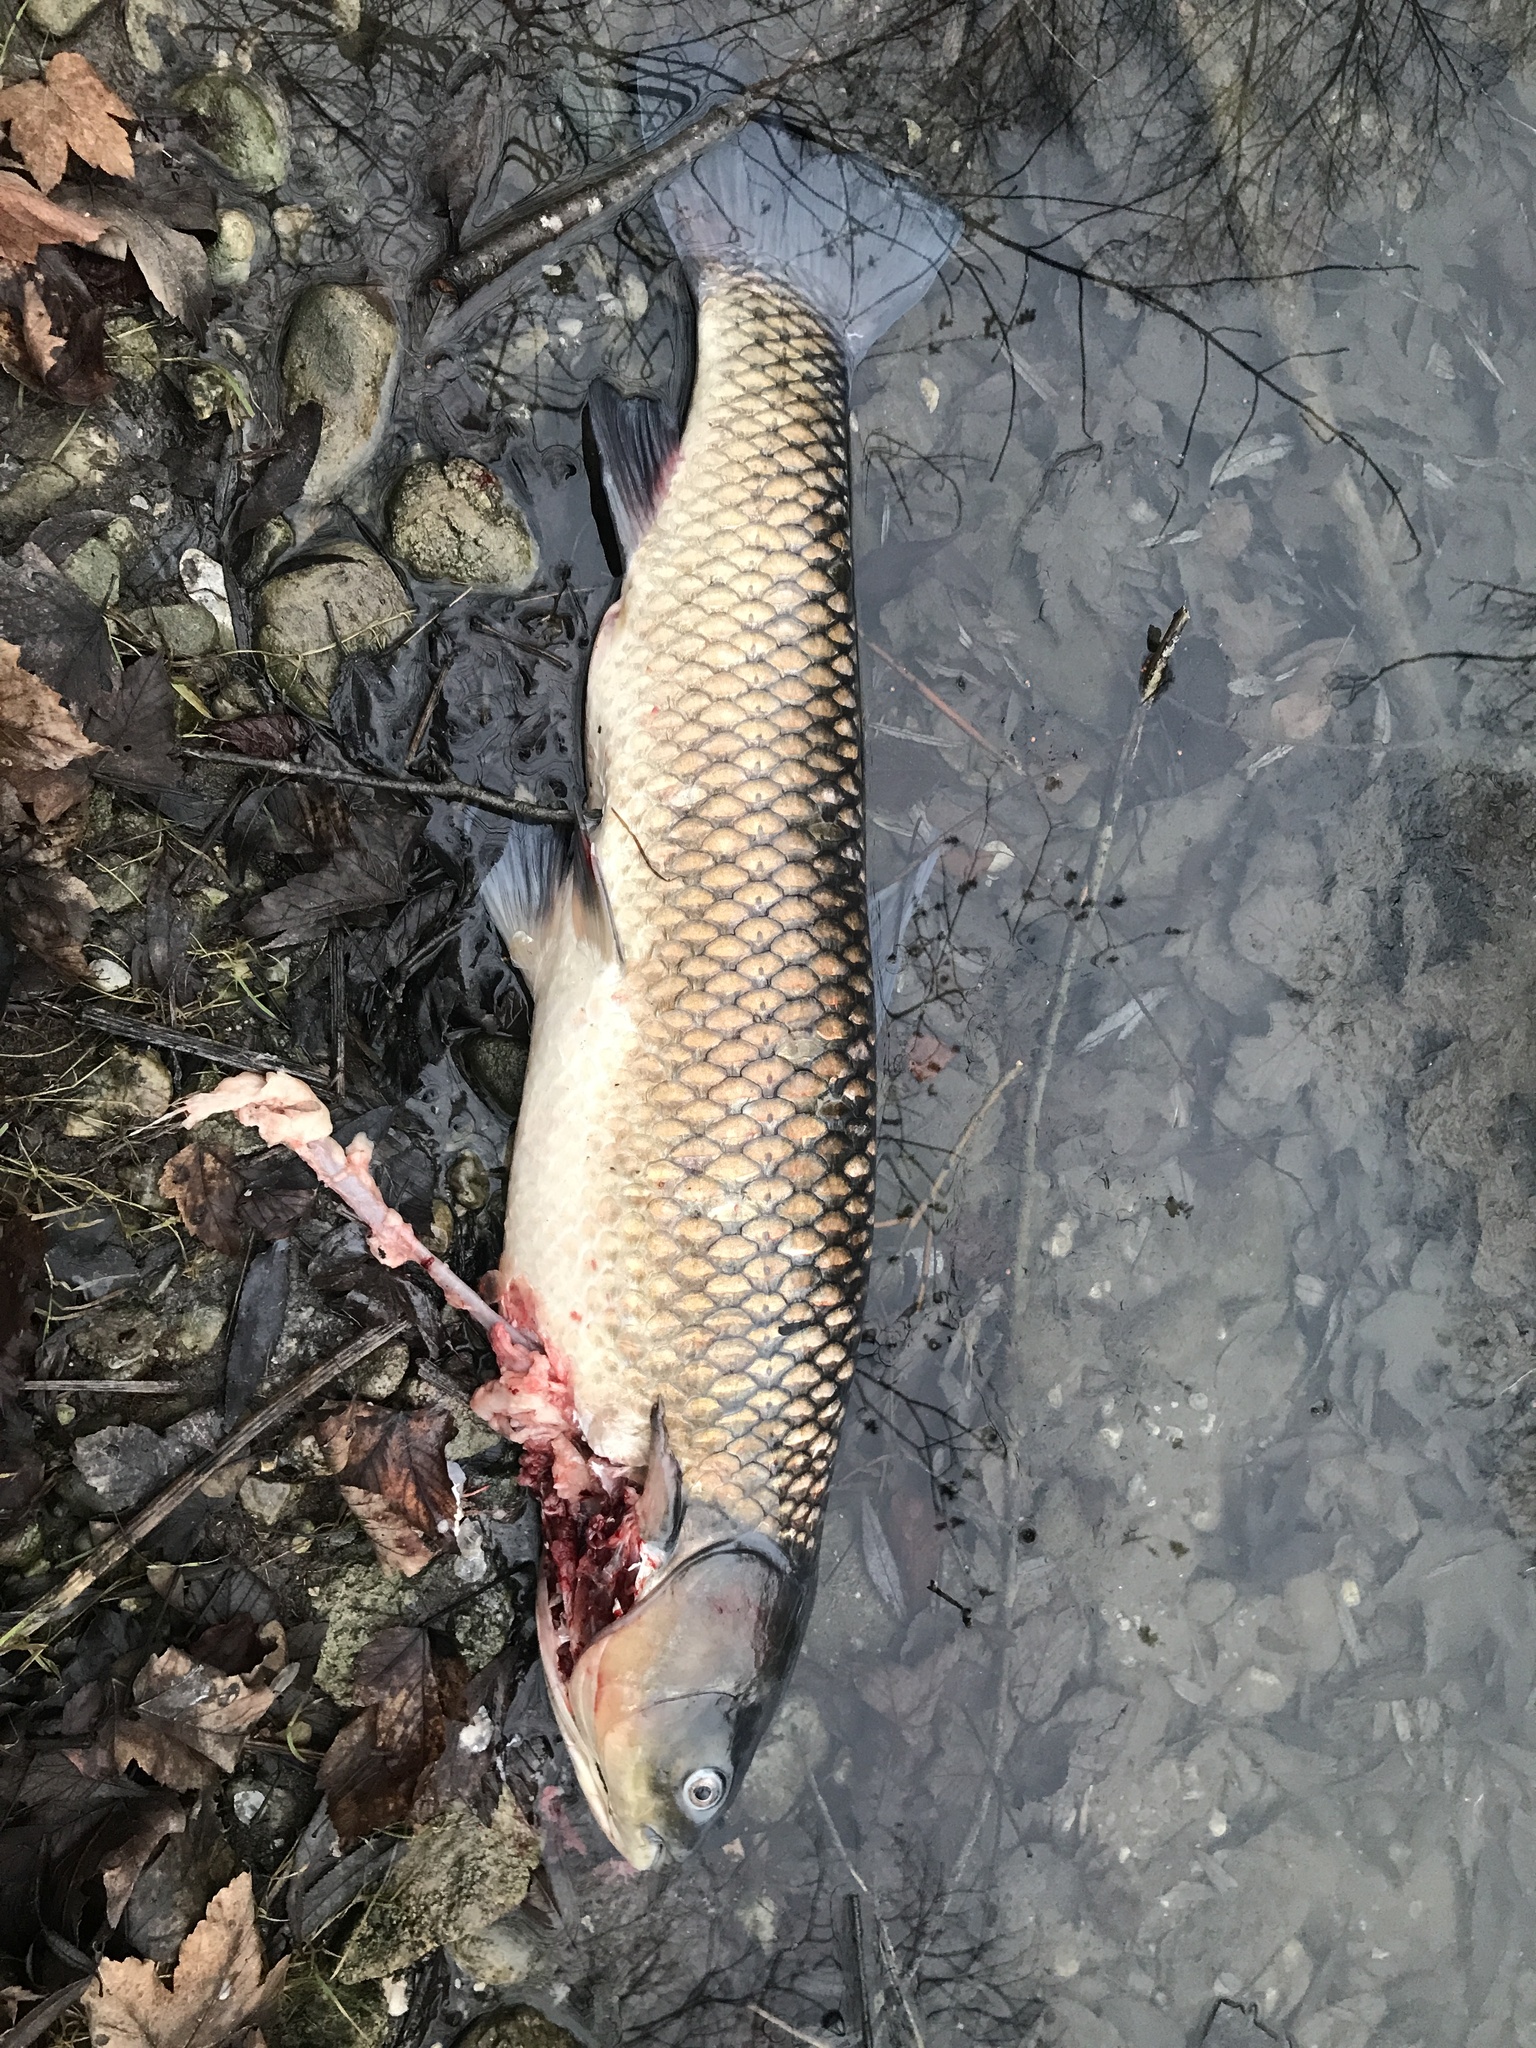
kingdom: Animalia
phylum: Chordata
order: Cypriniformes
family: Cyprinidae
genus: Ctenopharyngodon
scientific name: Ctenopharyngodon idella
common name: Grass carp
